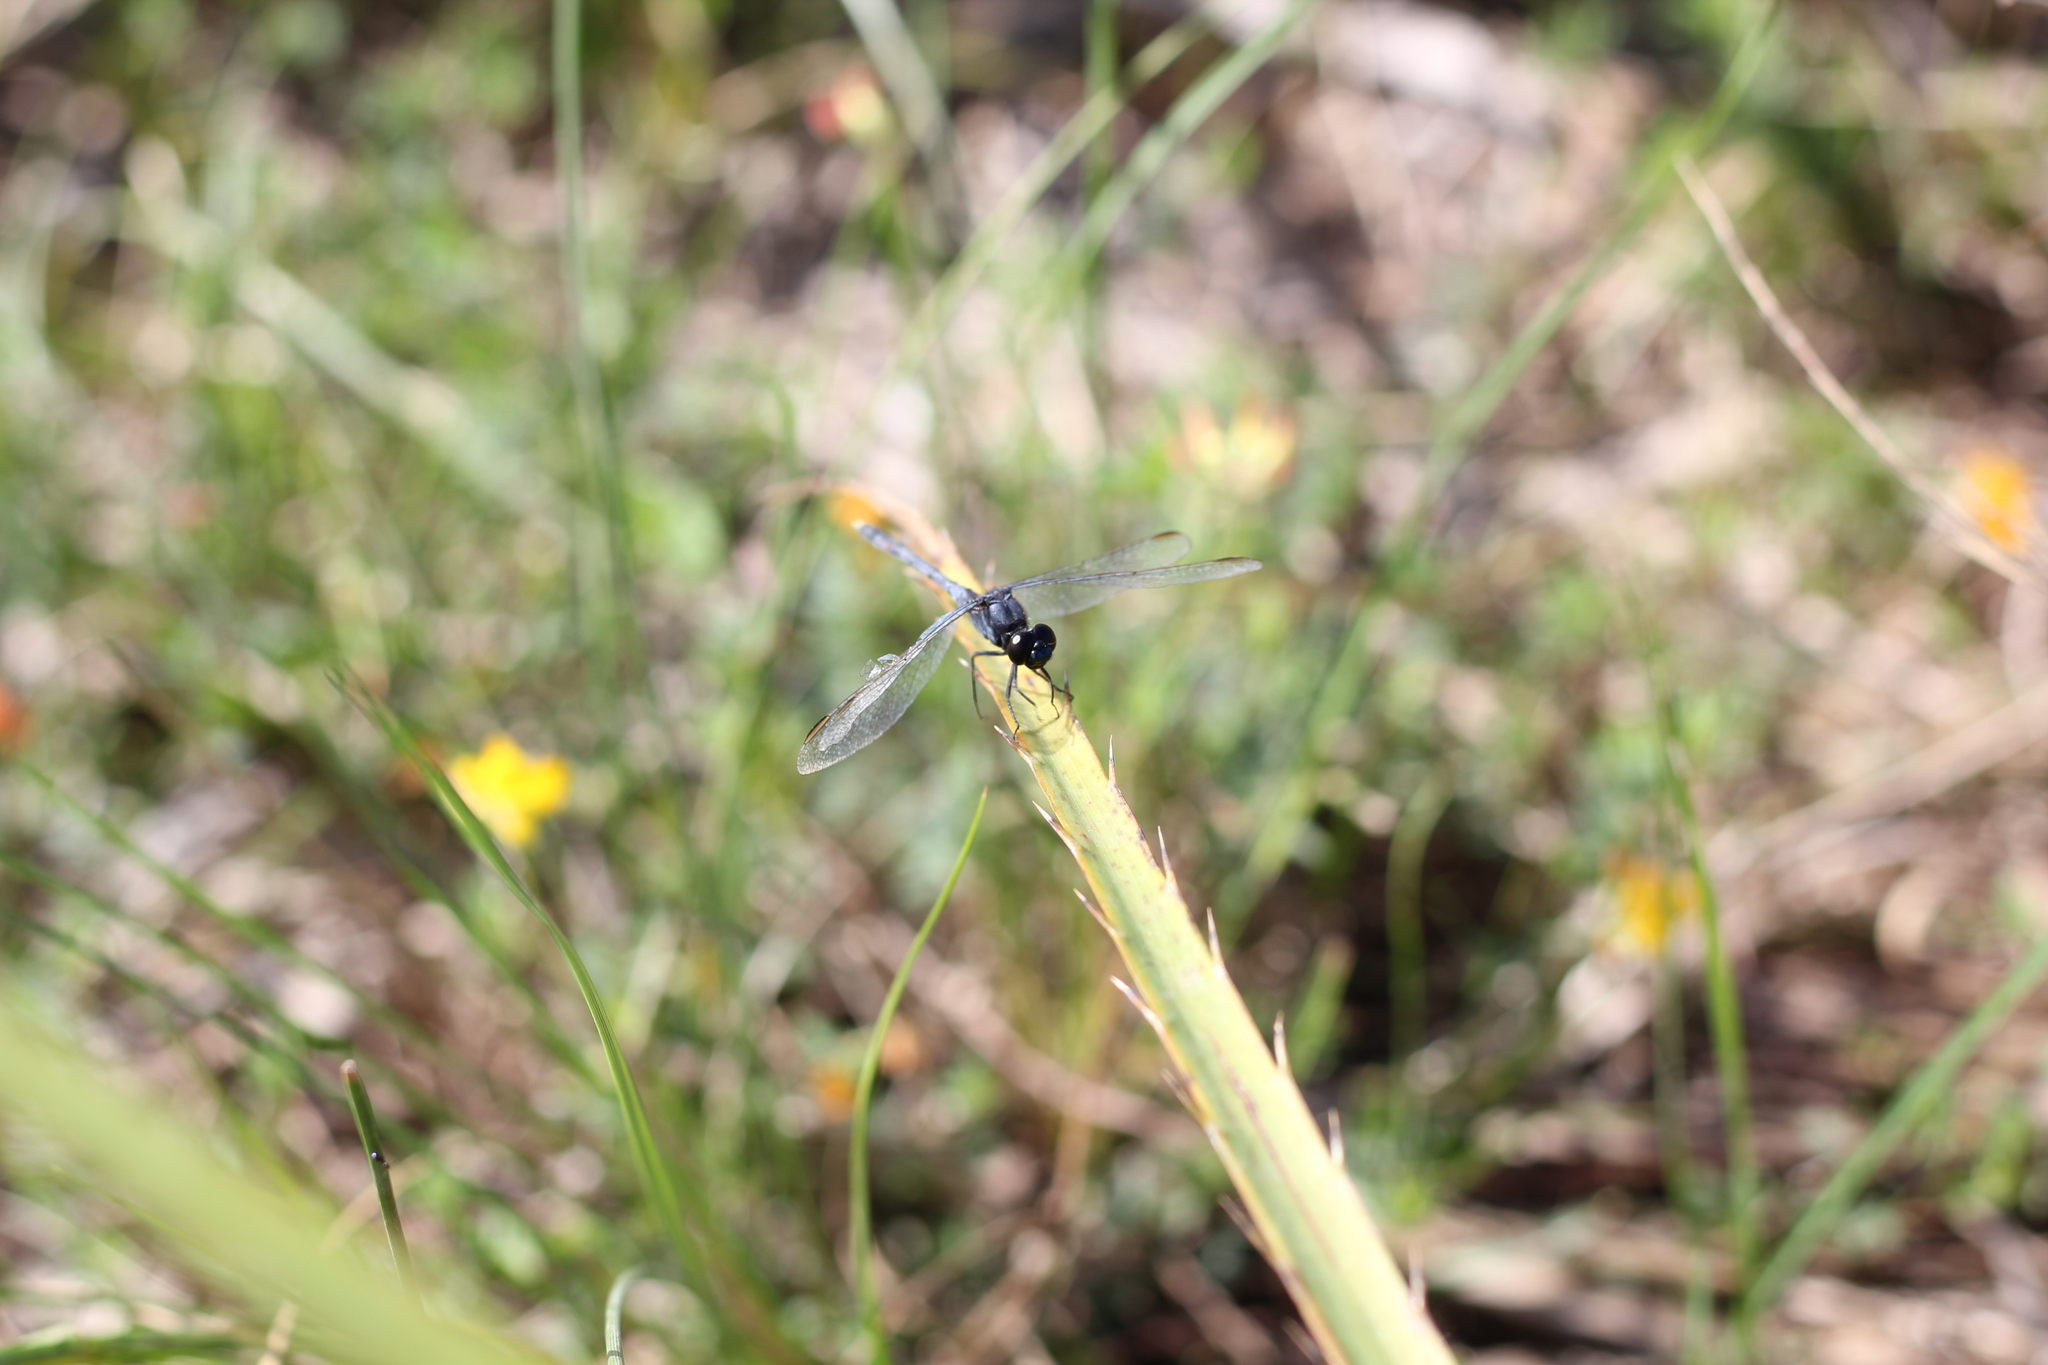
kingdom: Animalia
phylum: Arthropoda
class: Insecta
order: Odonata
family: Libellulidae
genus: Erythrodiplax
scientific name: Erythrodiplax nigricans
